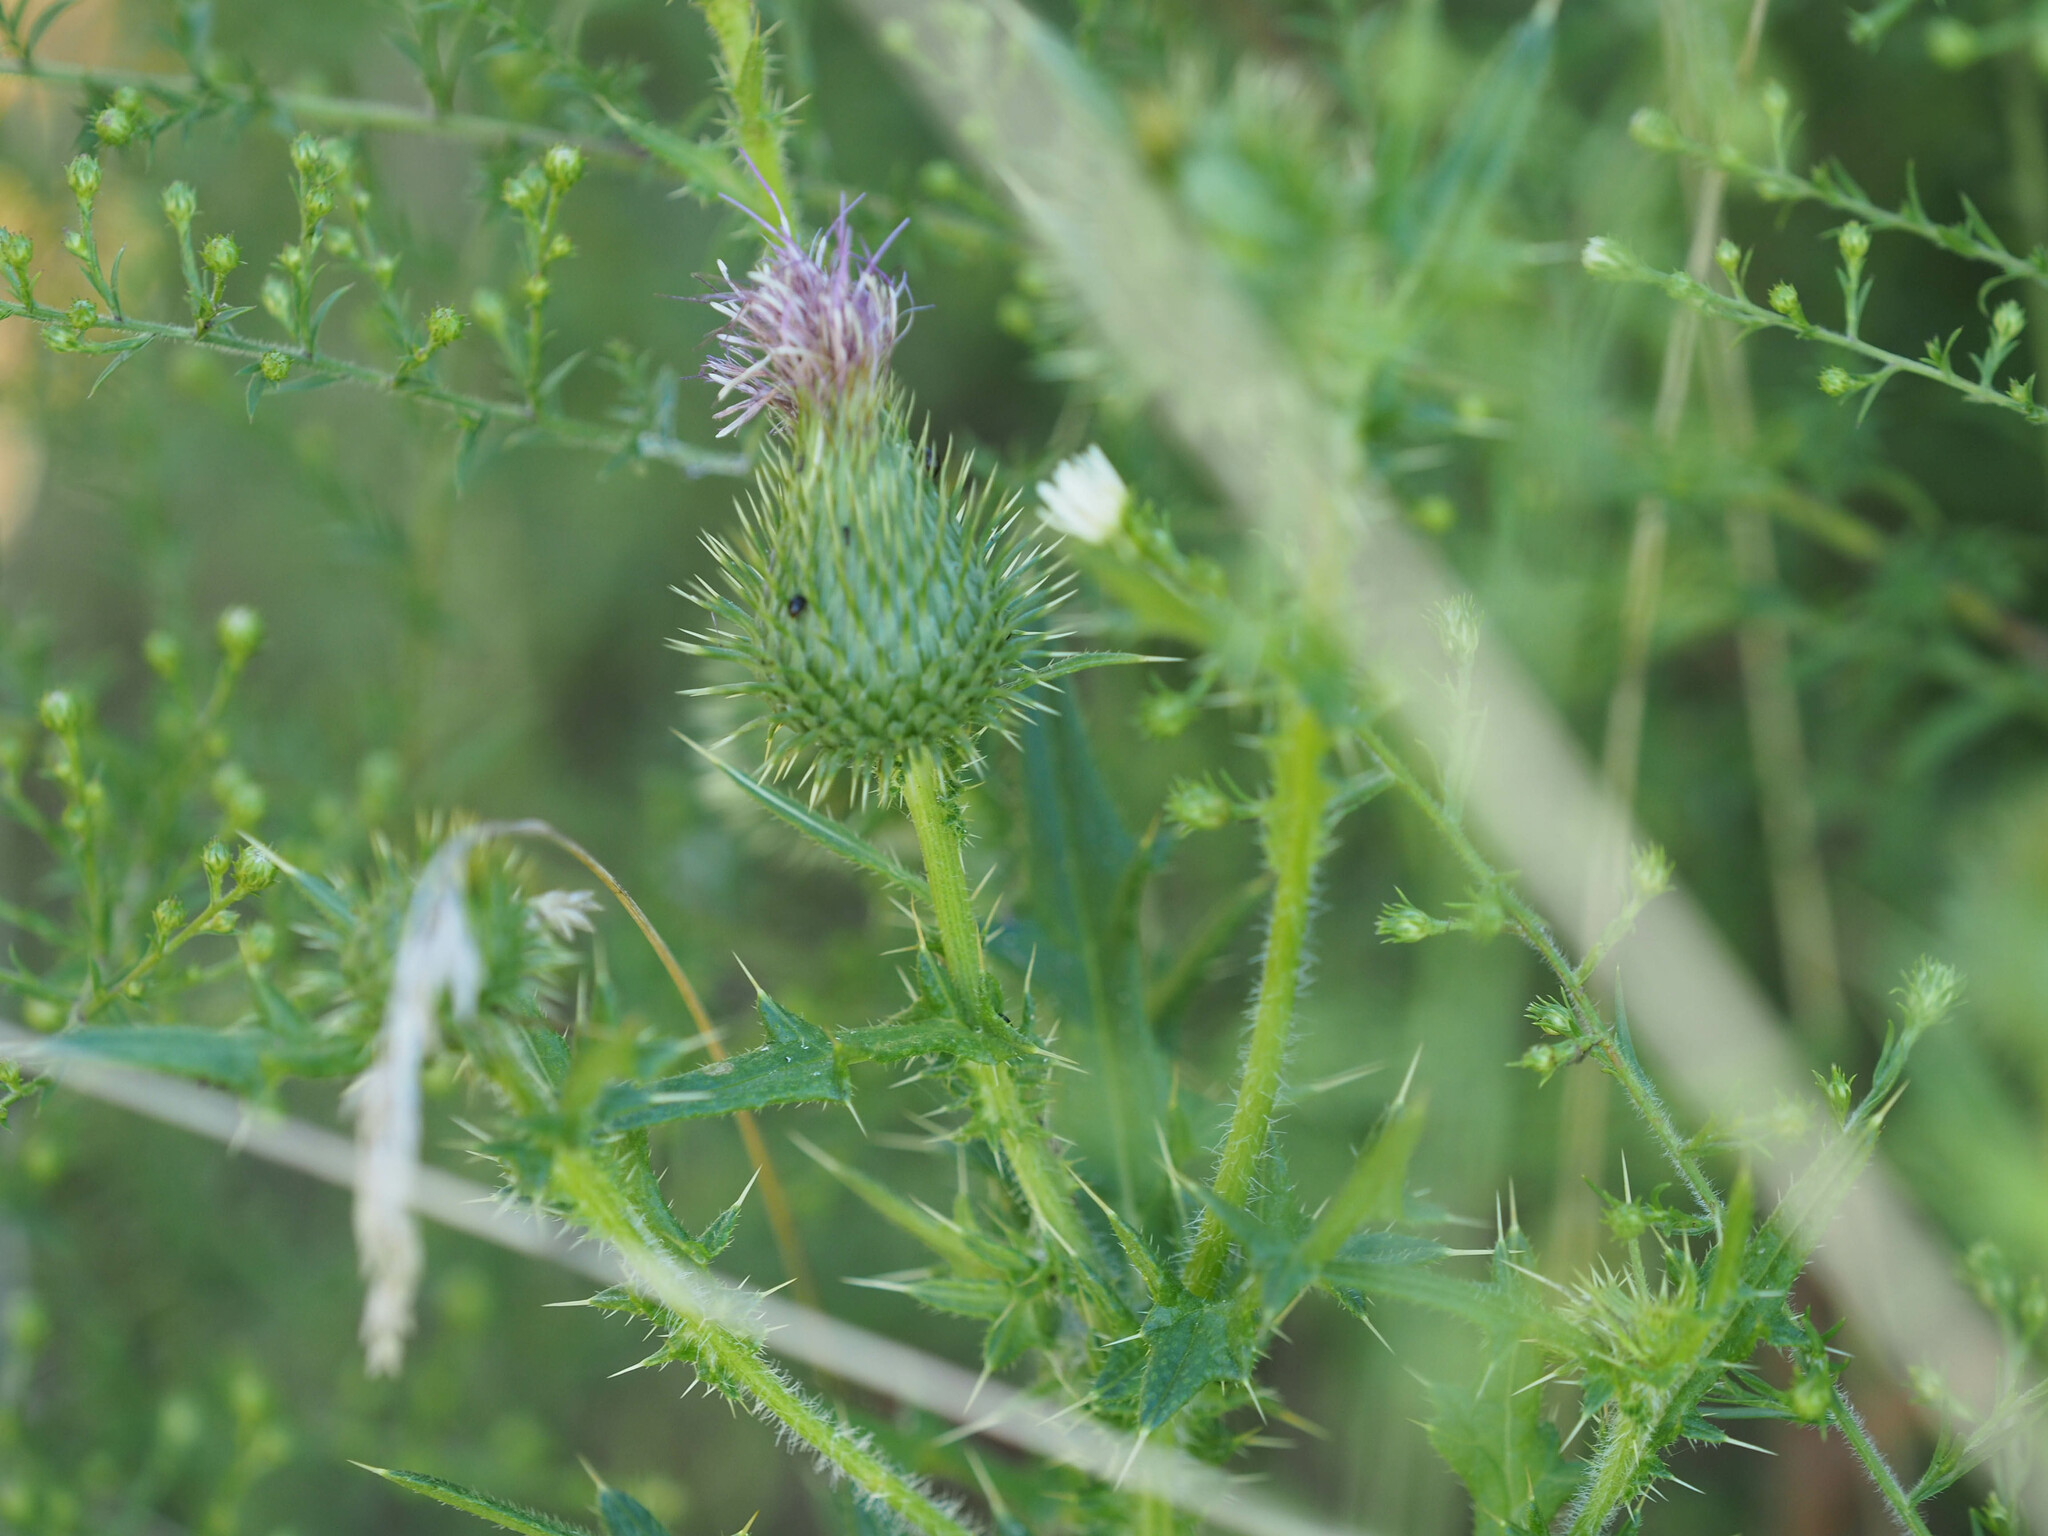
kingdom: Plantae
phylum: Tracheophyta
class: Magnoliopsida
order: Asterales
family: Asteraceae
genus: Cirsium
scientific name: Cirsium vulgare
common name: Bull thistle
